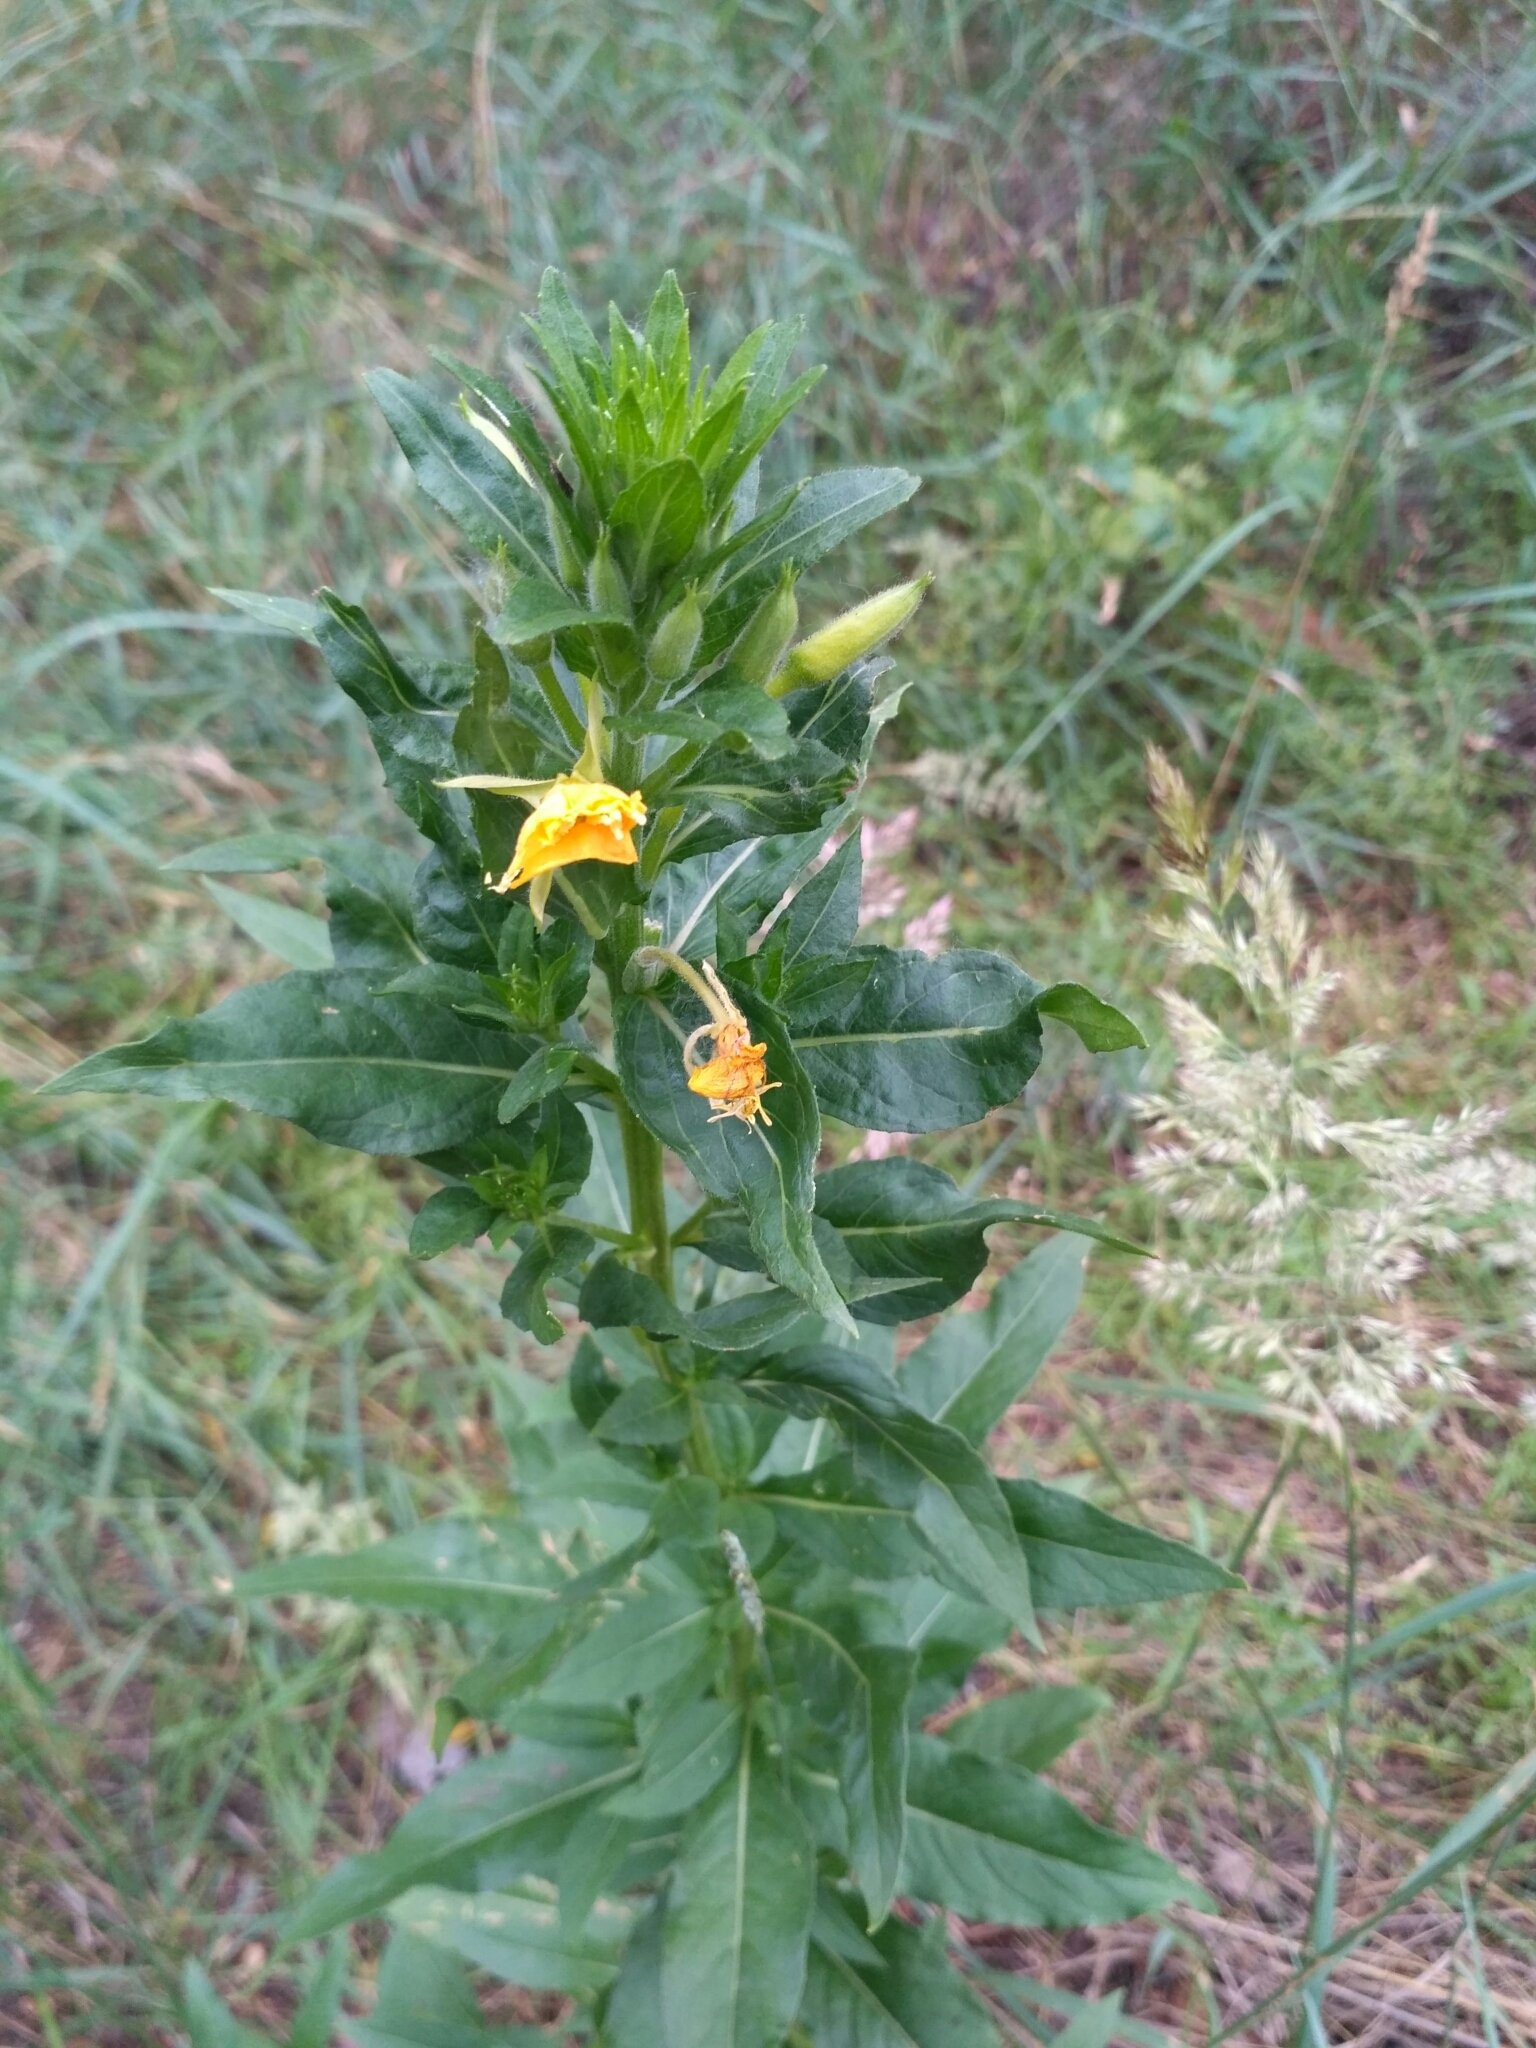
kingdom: Plantae
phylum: Tracheophyta
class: Magnoliopsida
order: Myrtales
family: Onagraceae
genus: Oenothera
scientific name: Oenothera biennis
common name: Common evening-primrose
